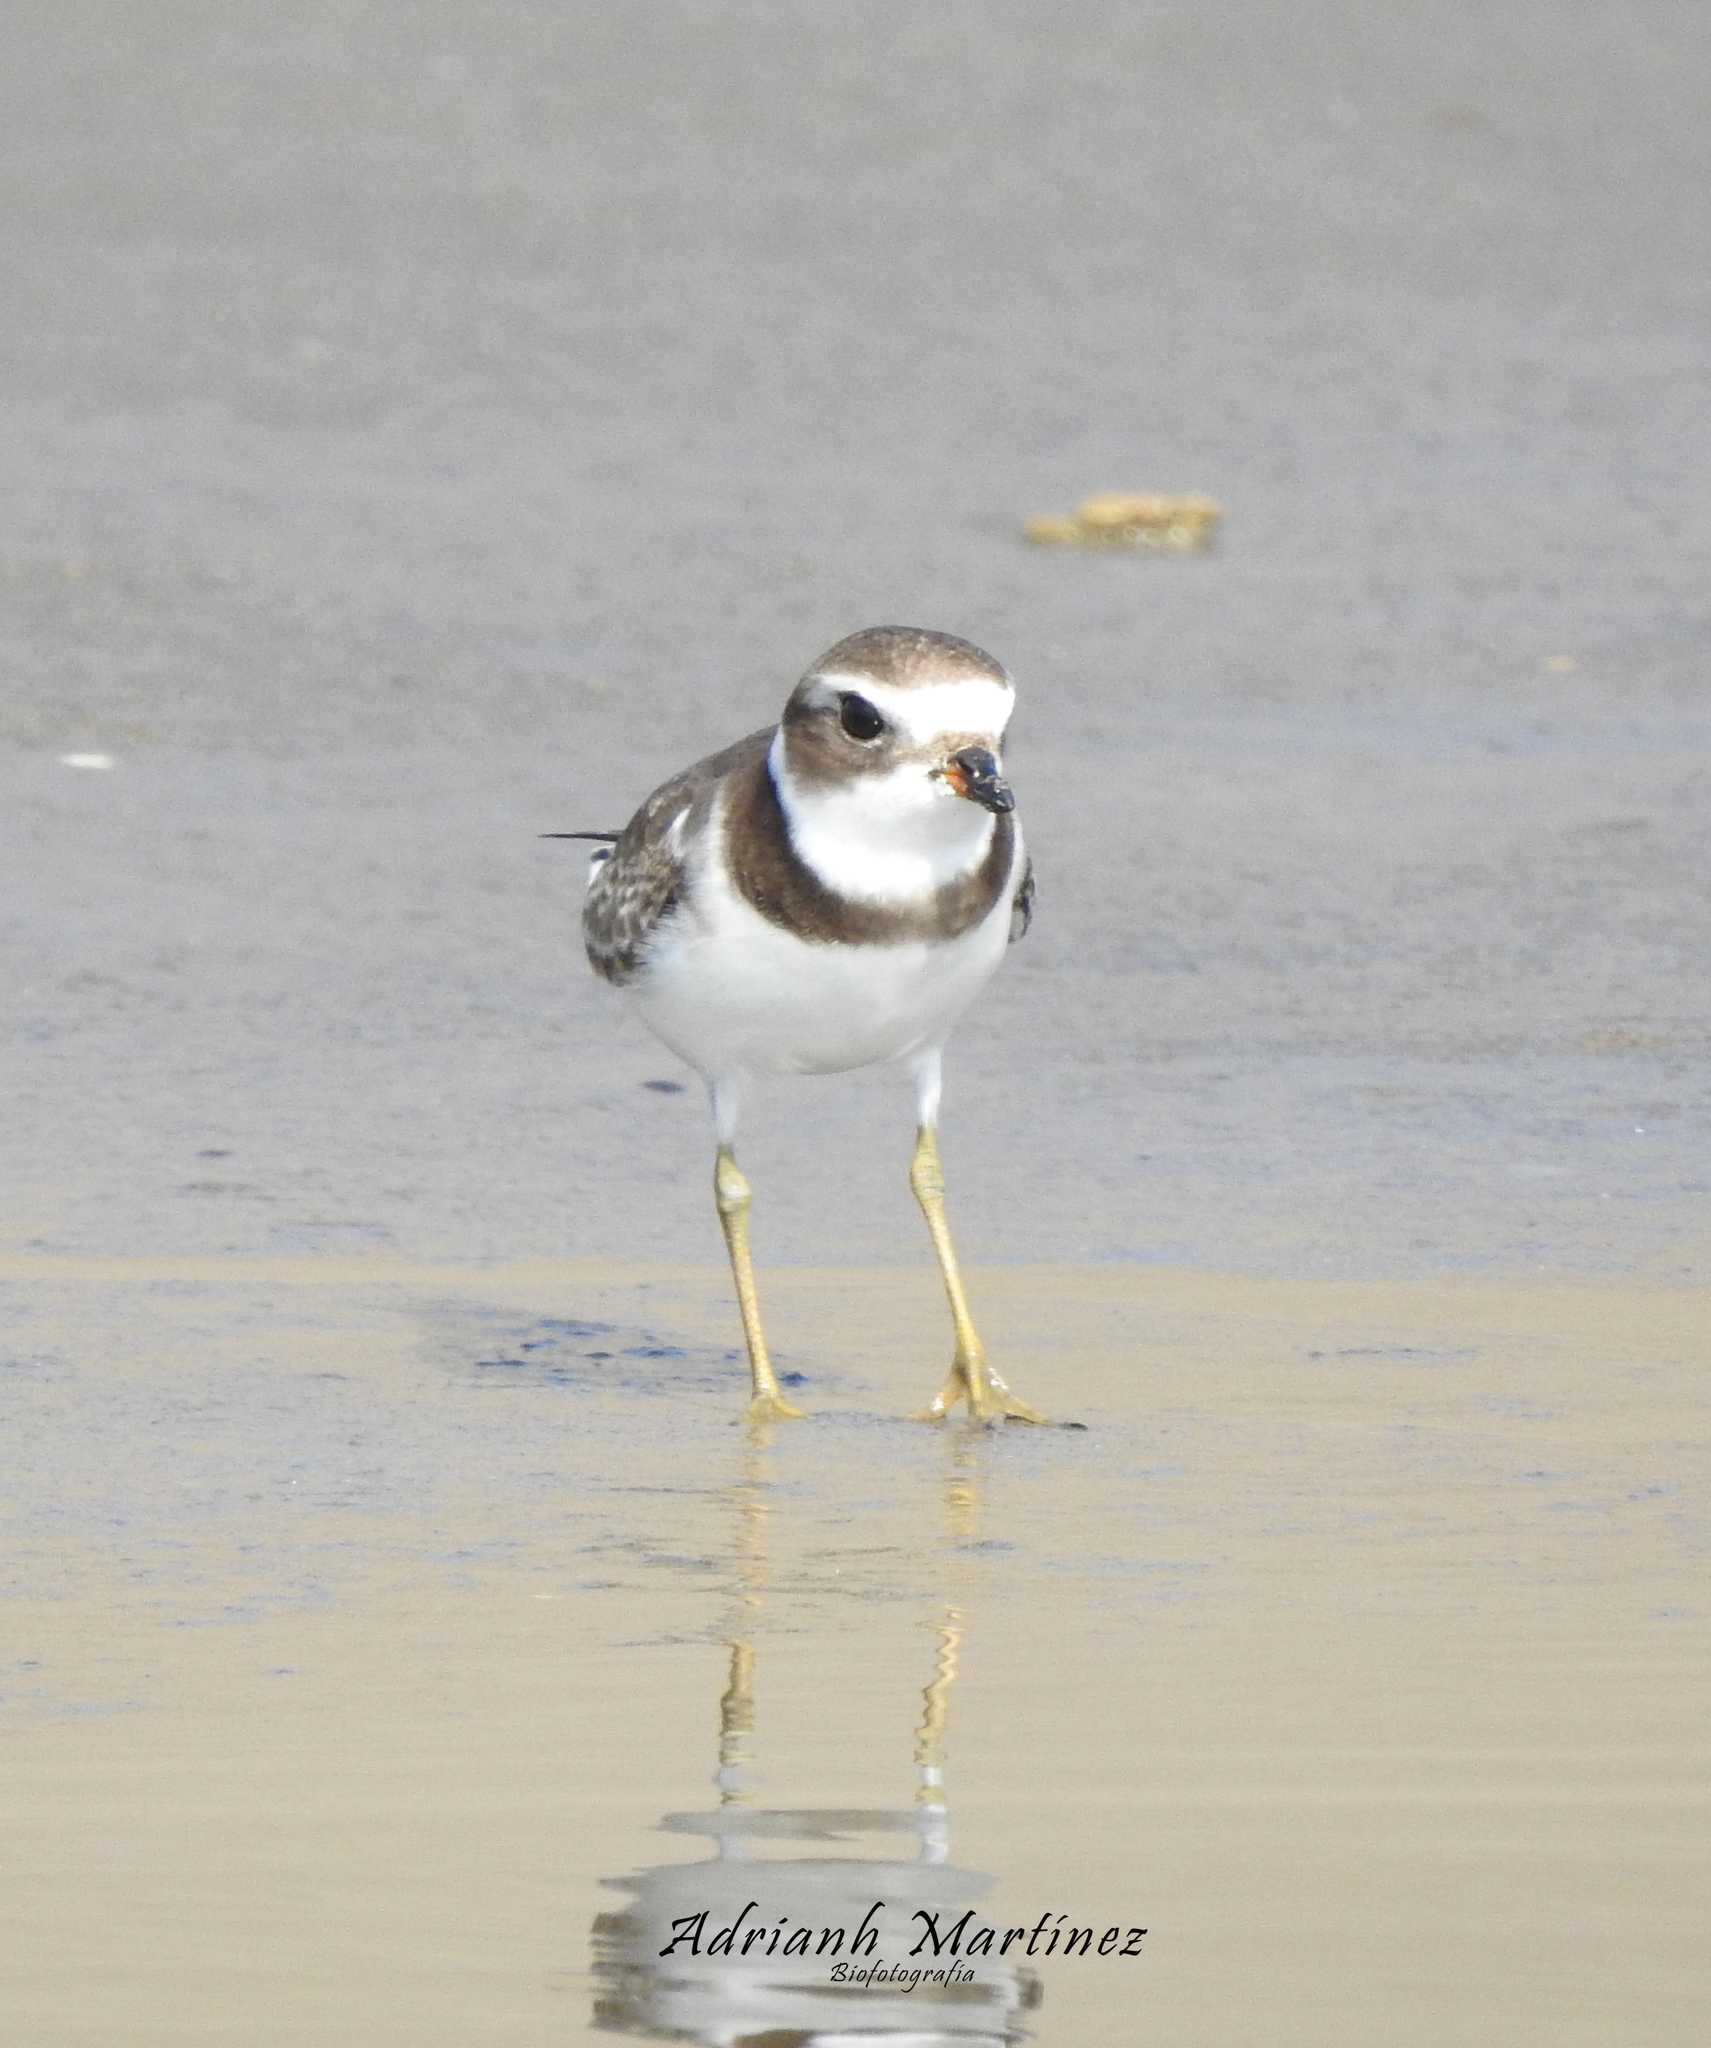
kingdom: Animalia
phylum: Chordata
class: Aves
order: Charadriiformes
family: Charadriidae
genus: Charadrius
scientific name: Charadrius semipalmatus
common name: Semipalmated plover
